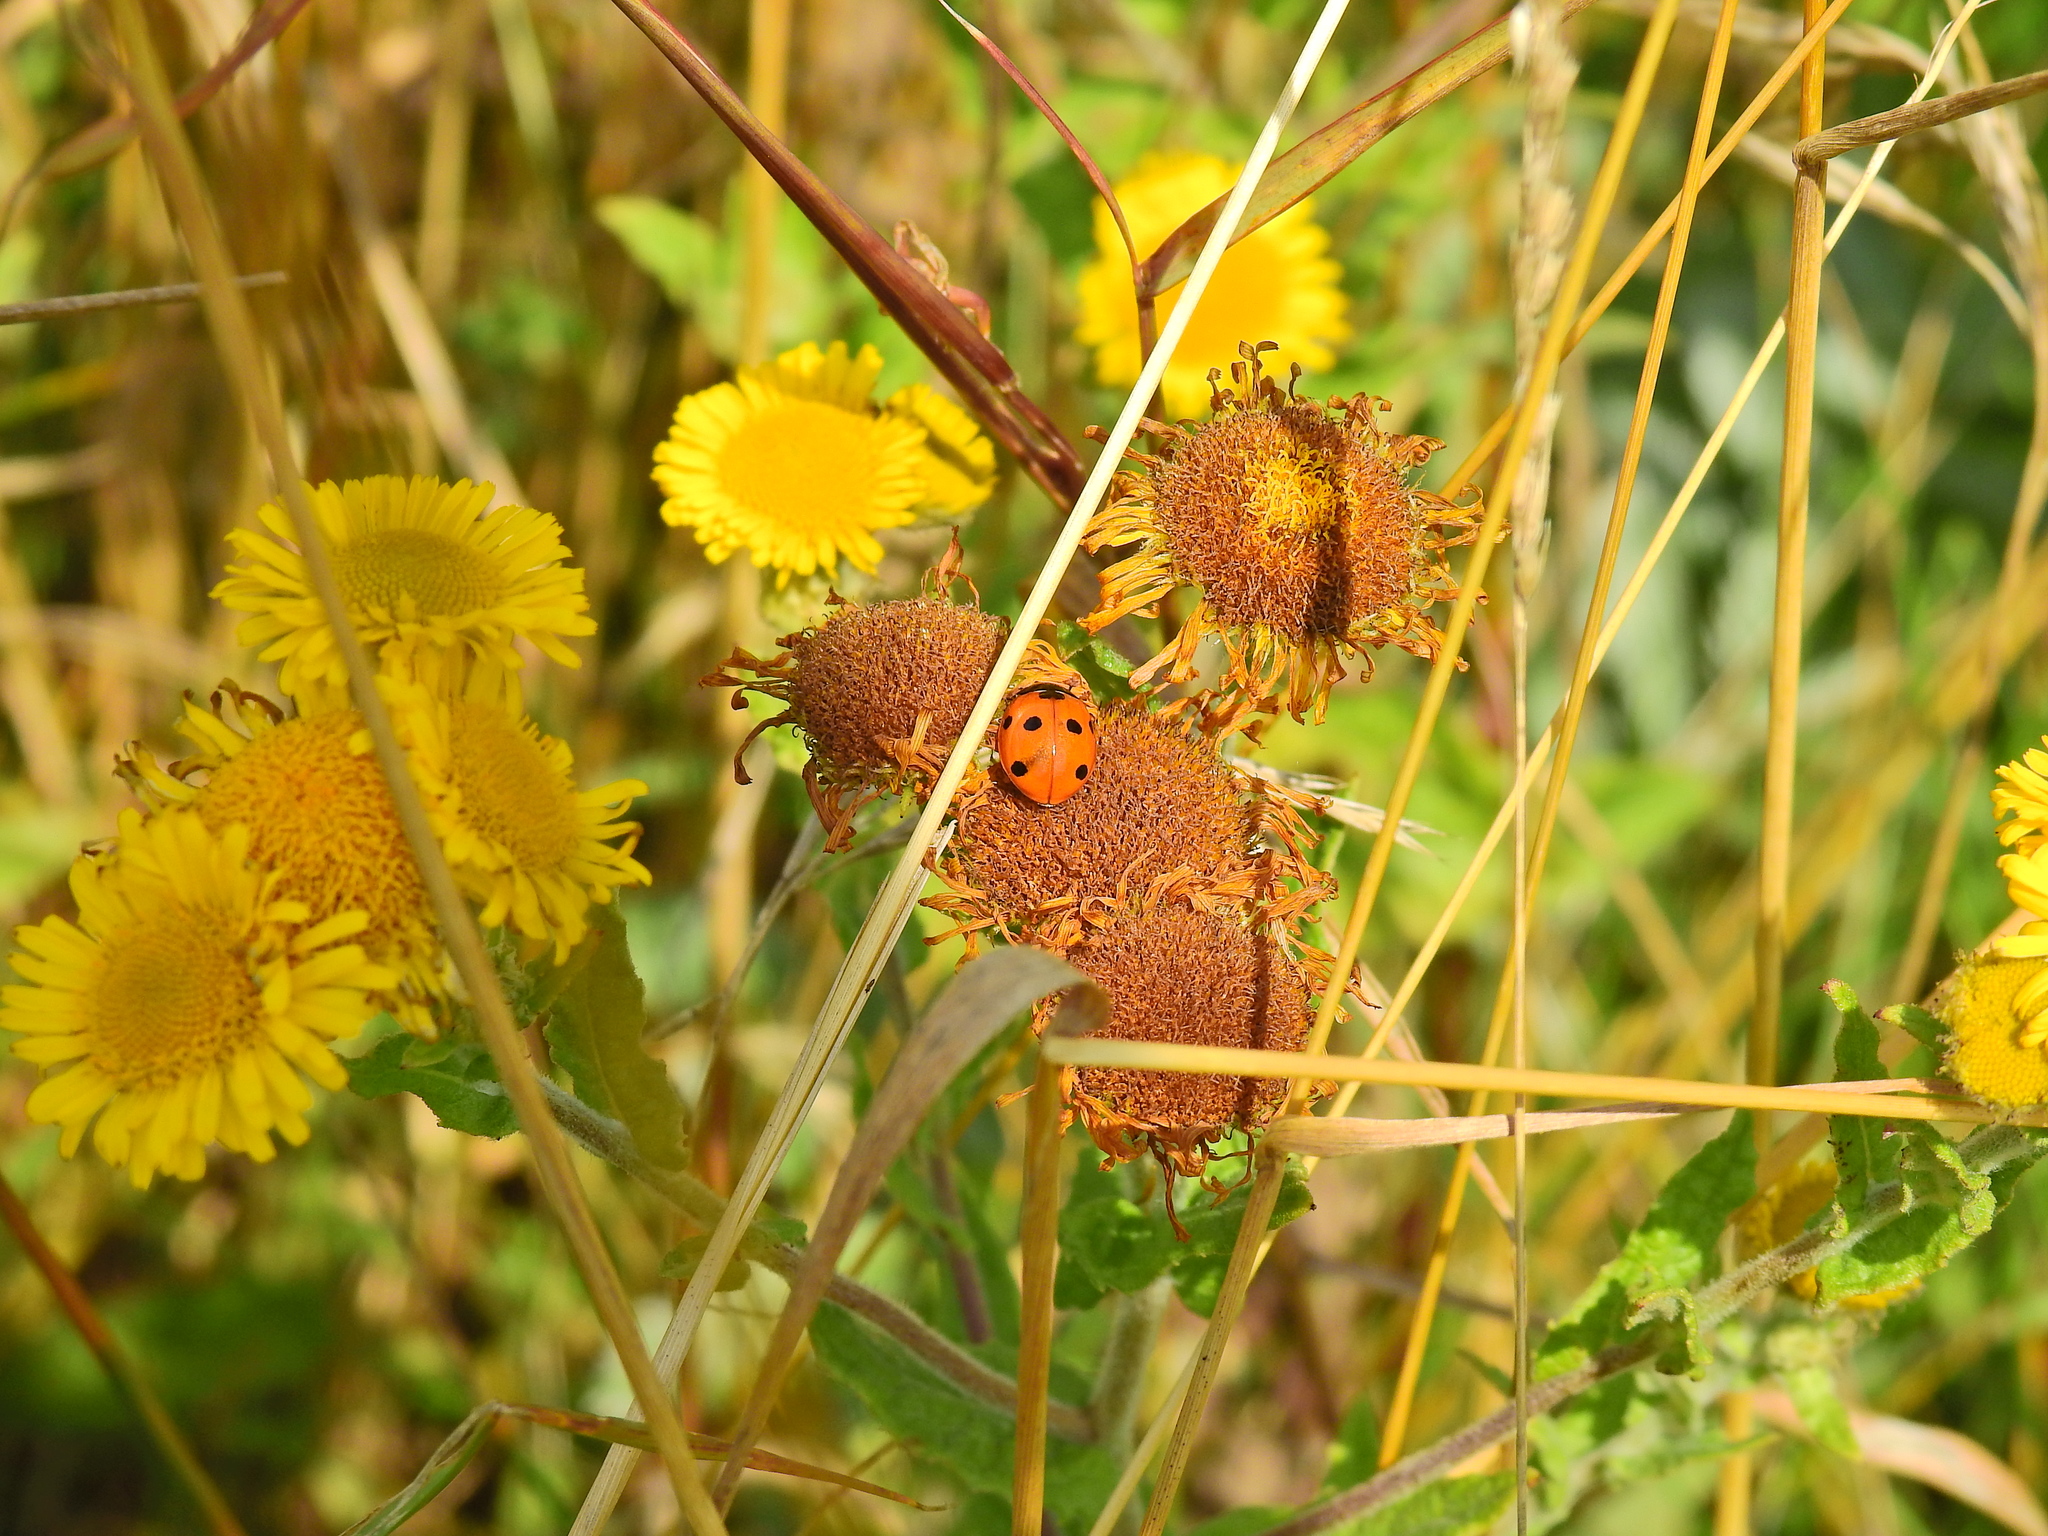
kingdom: Animalia
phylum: Arthropoda
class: Insecta
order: Coleoptera
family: Coccinellidae
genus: Coccinella
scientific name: Coccinella septempunctata
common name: Sevenspotted lady beetle
